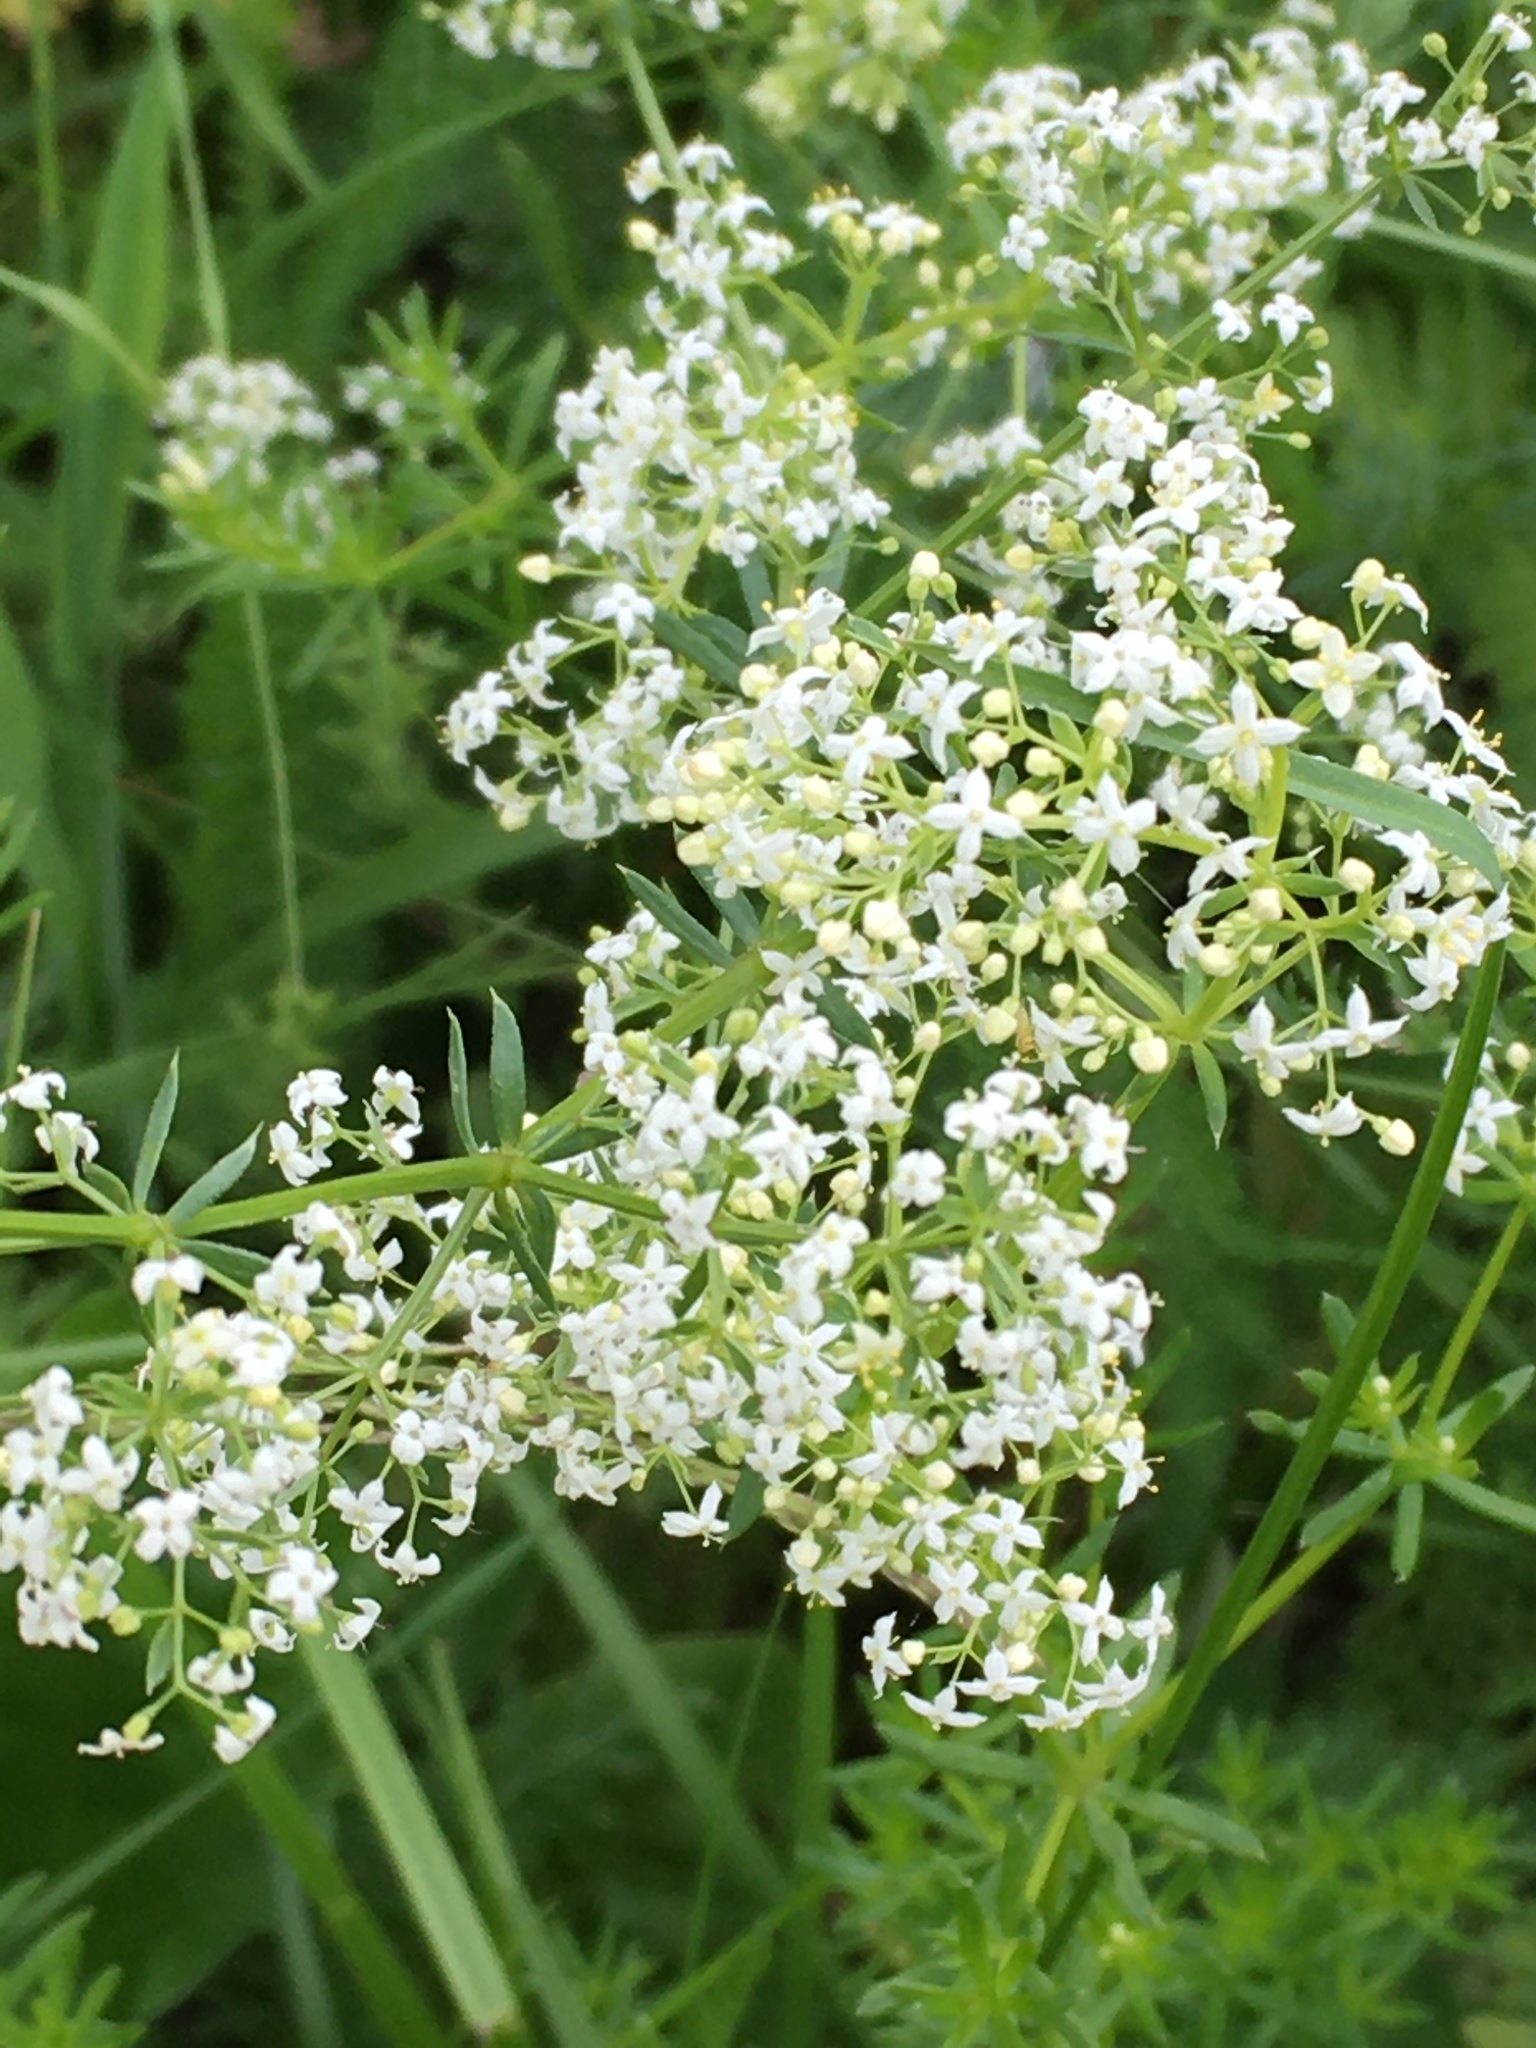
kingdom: Plantae
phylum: Tracheophyta
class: Magnoliopsida
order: Gentianales
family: Rubiaceae
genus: Galium
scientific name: Galium mollugo
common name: Hedge bedstraw
